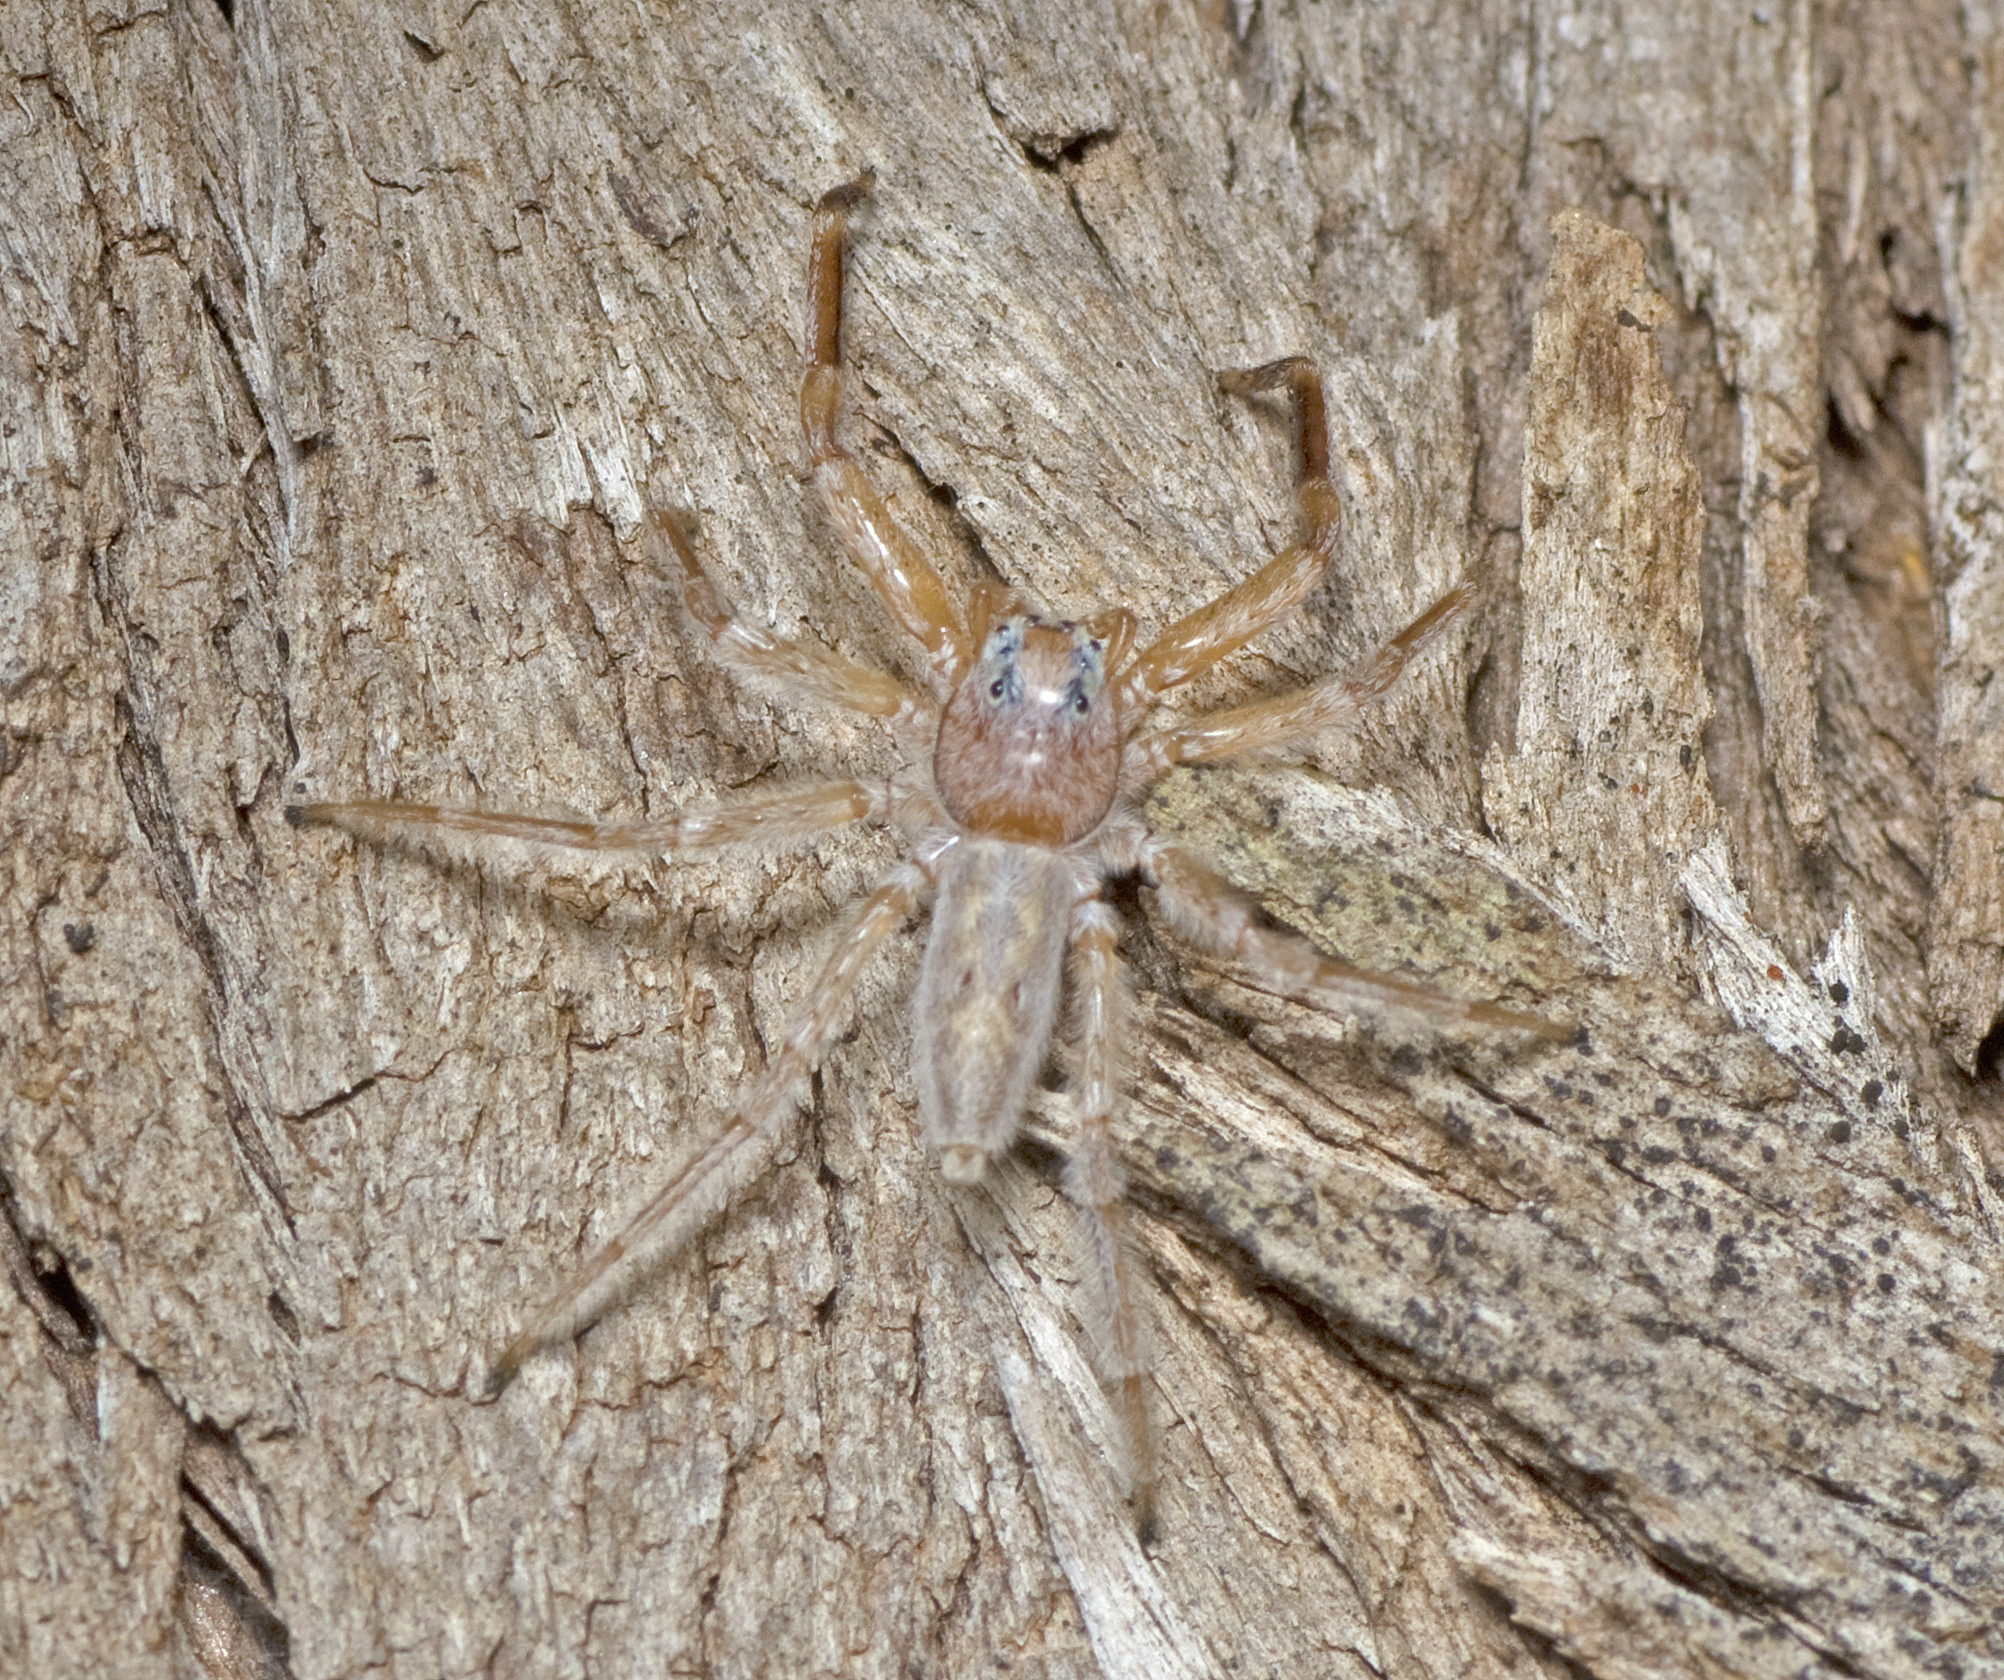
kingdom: Animalia
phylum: Arthropoda
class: Arachnida
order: Araneae
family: Salticidae
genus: Arasia
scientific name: Arasia mollicoma
